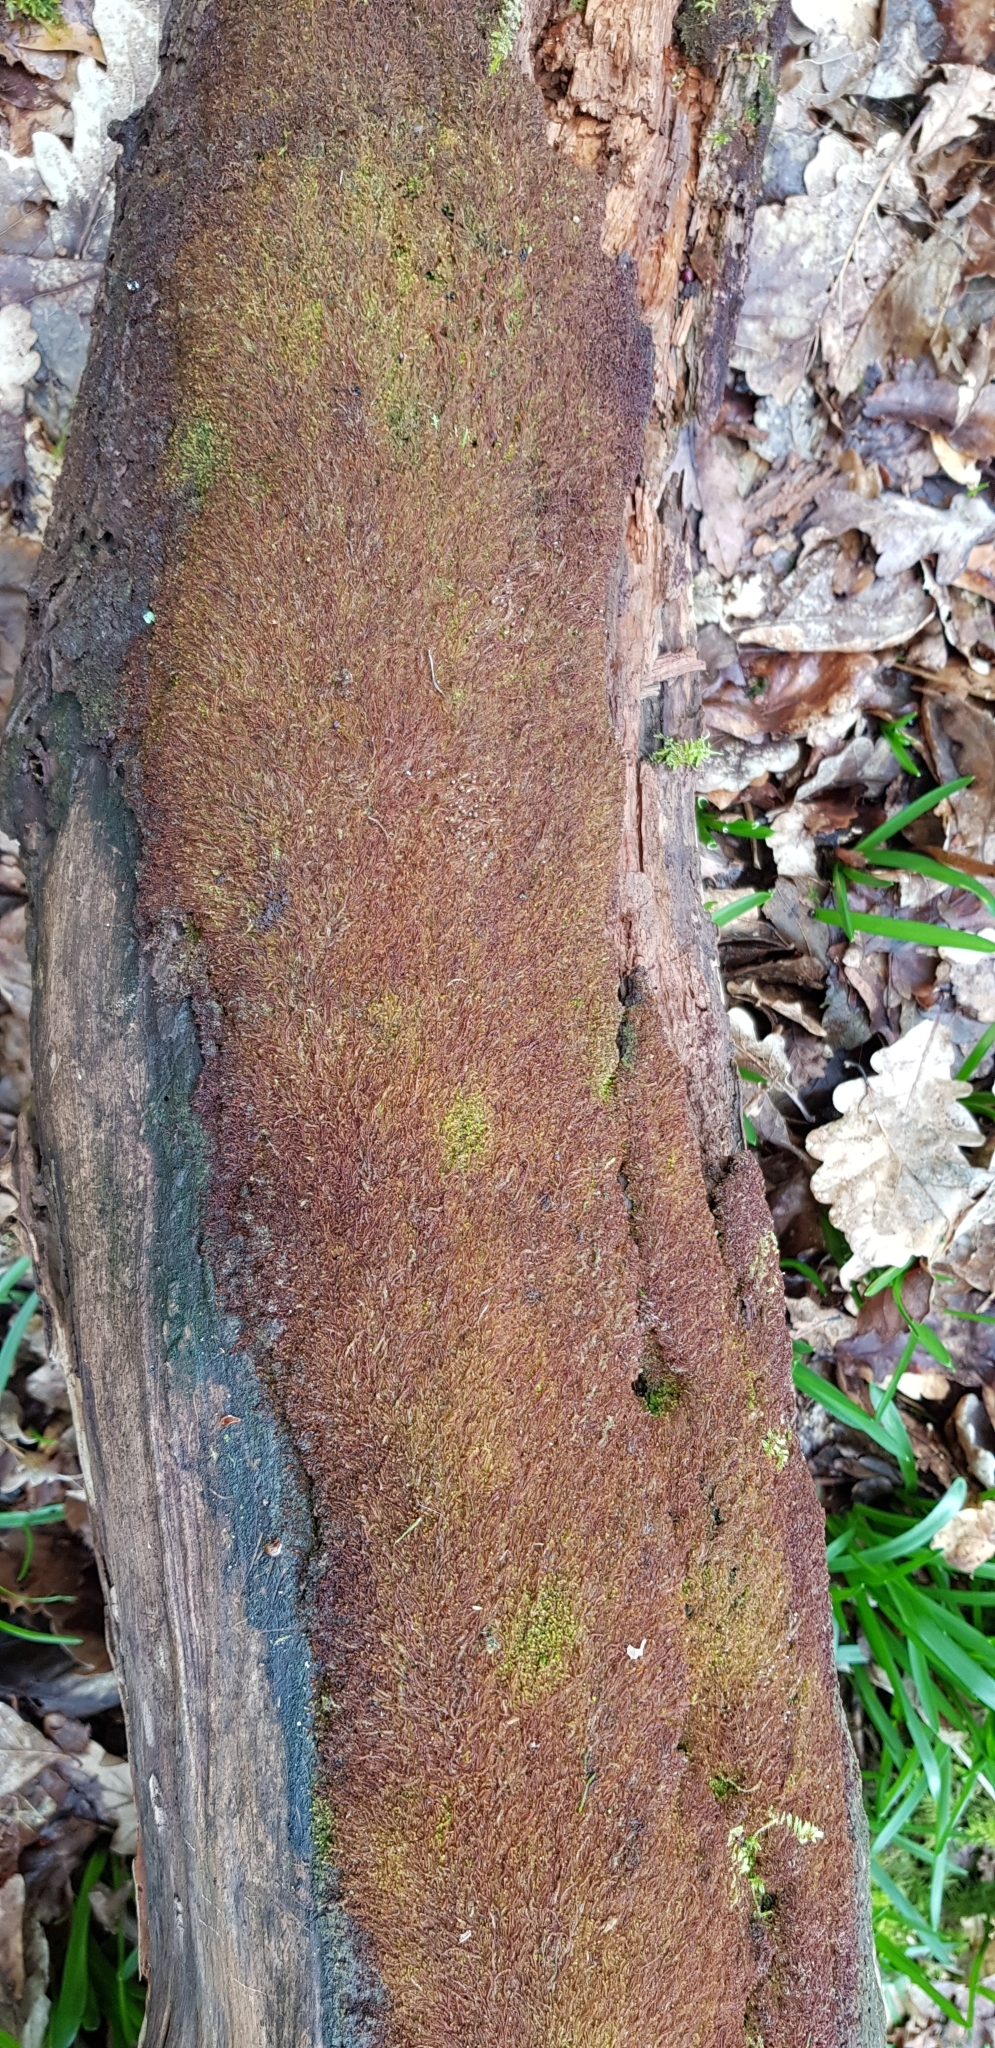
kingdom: Plantae
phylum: Marchantiophyta
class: Jungermanniopsida
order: Jungermanniales
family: Cephaloziaceae
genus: Nowellia
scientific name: Nowellia curvifolia
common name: Wood rustwort
